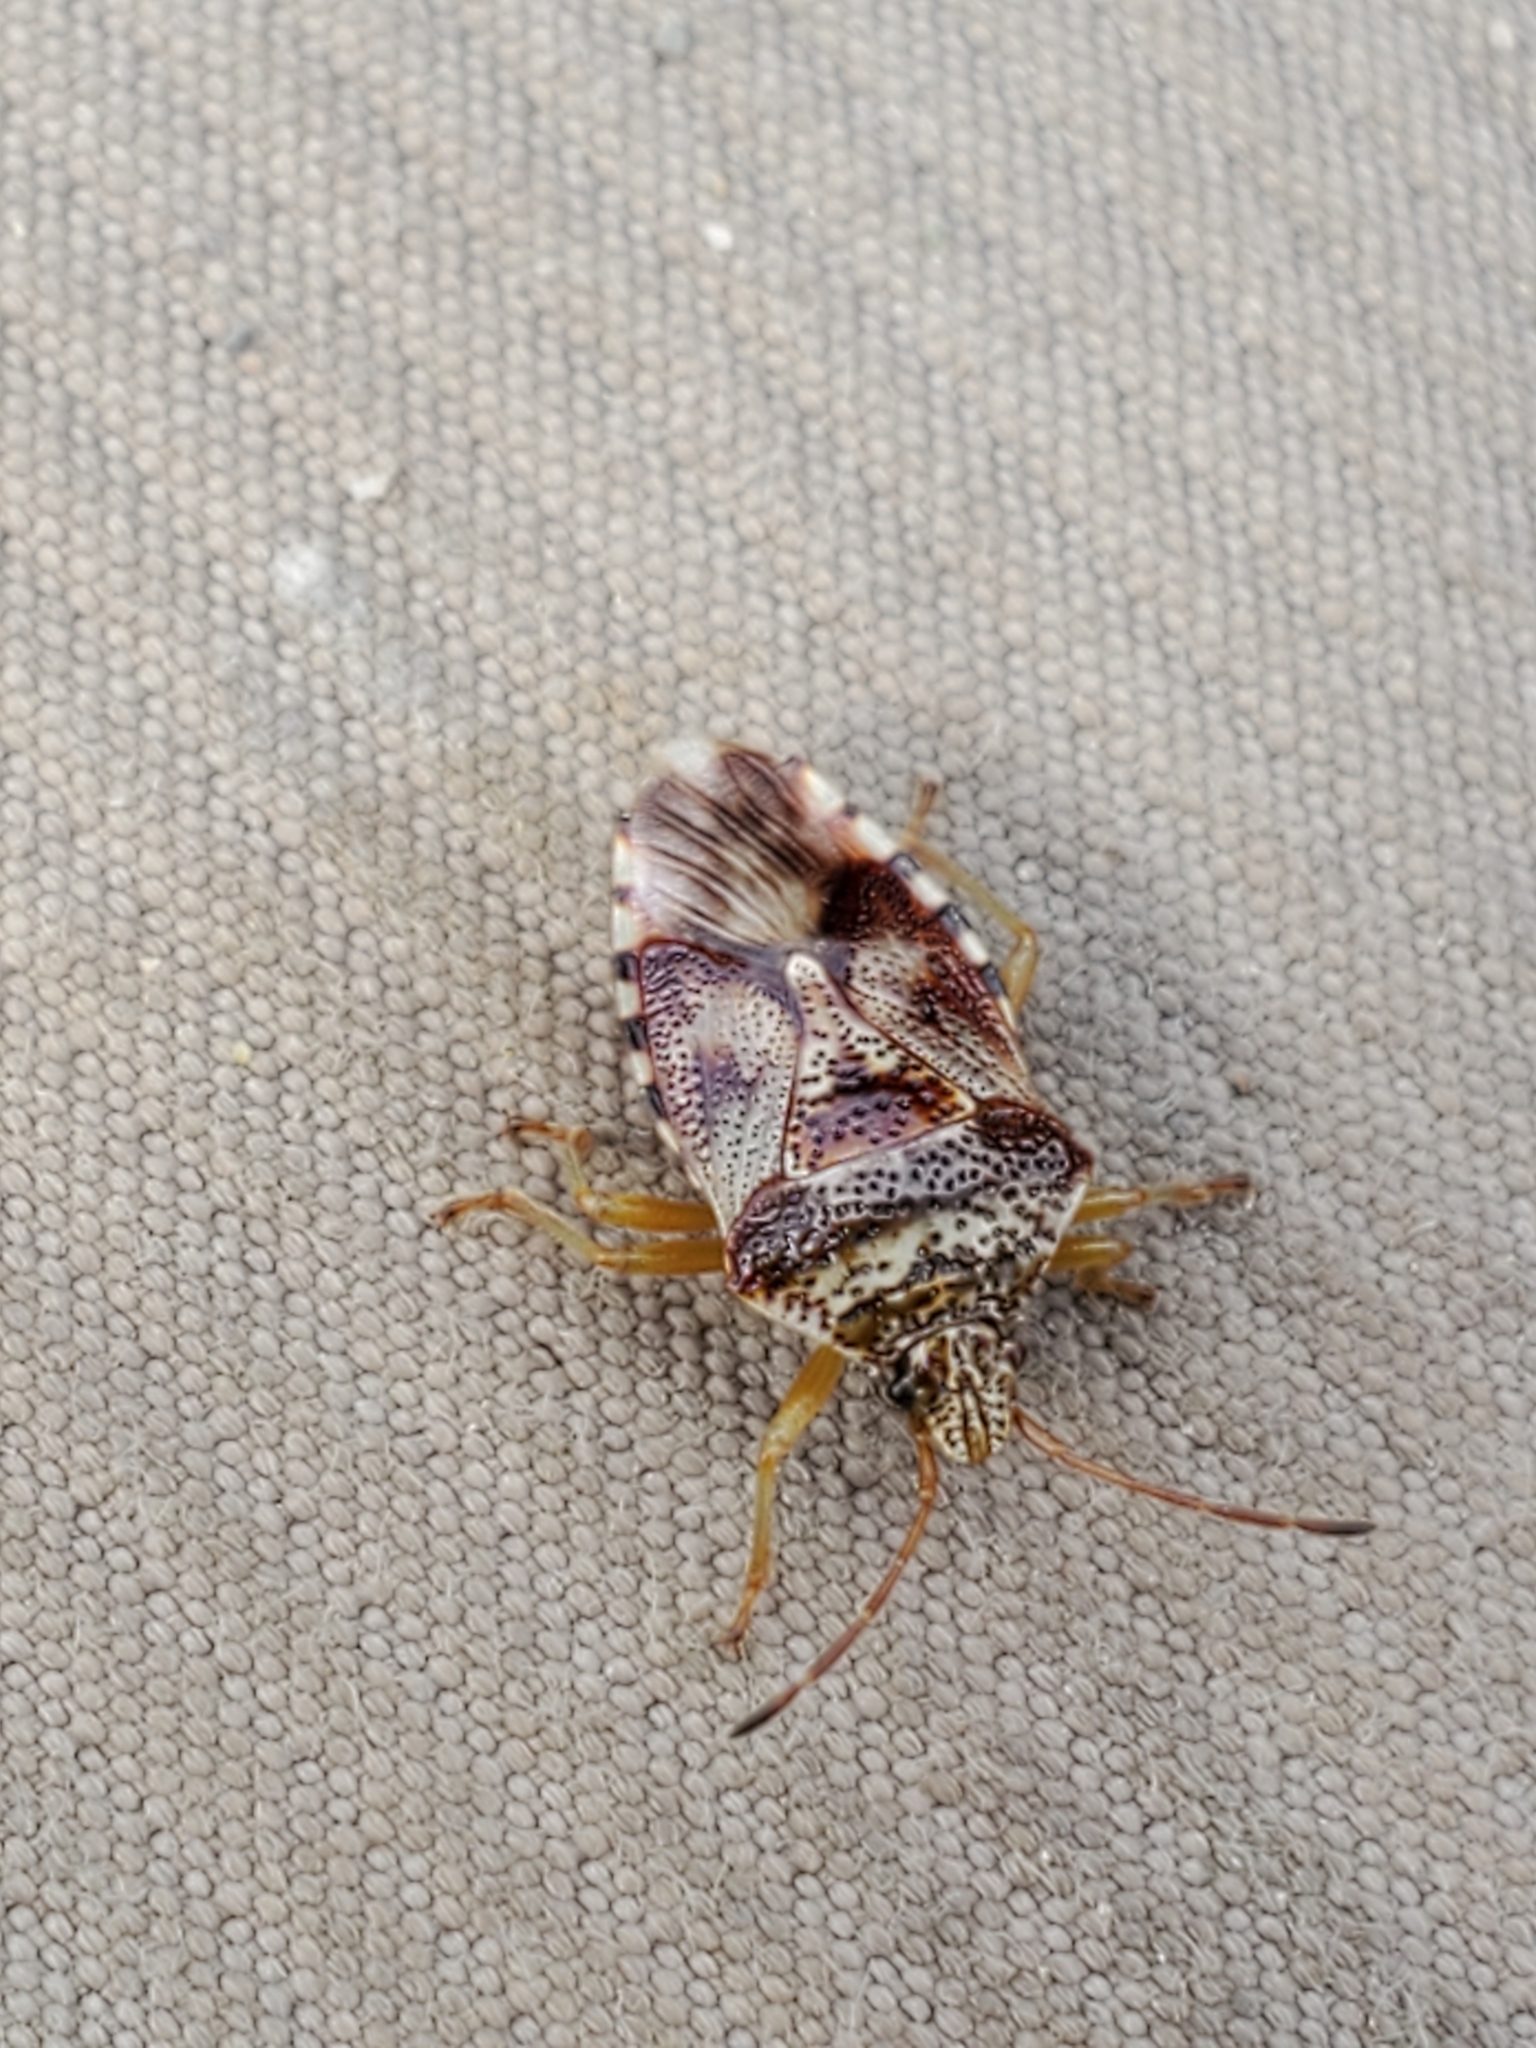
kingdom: Animalia
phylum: Arthropoda
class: Insecta
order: Hemiptera
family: Acanthosomatidae
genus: Elasmucha
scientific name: Elasmucha lateralis
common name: Shield bug
